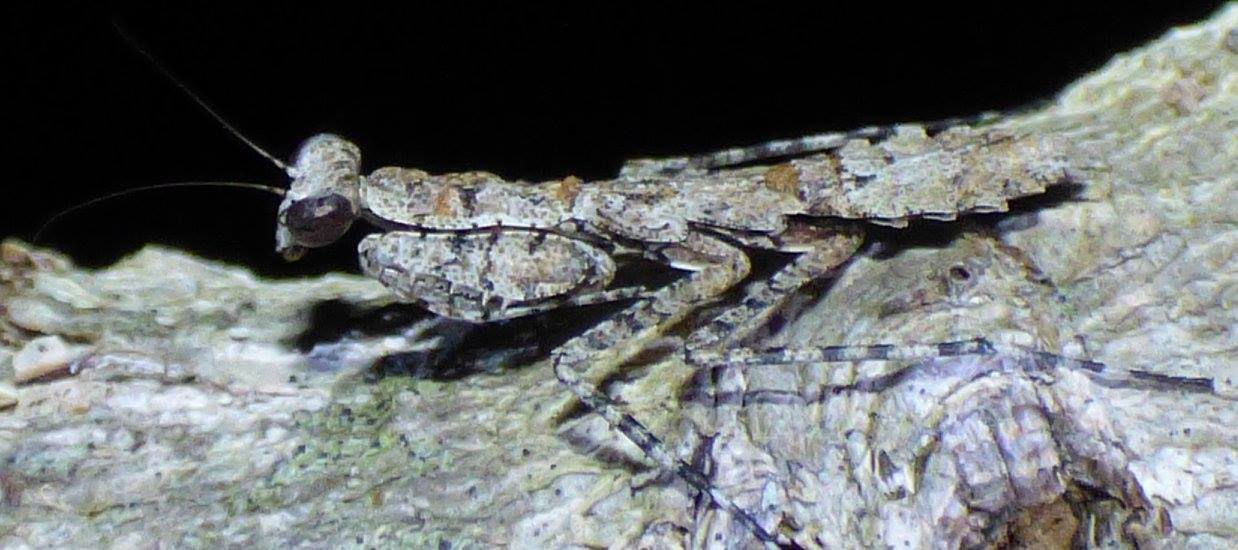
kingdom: Animalia
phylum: Arthropoda
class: Insecta
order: Mantodea
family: Epaphroditidae
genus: Gonatista
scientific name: Gonatista grisea
